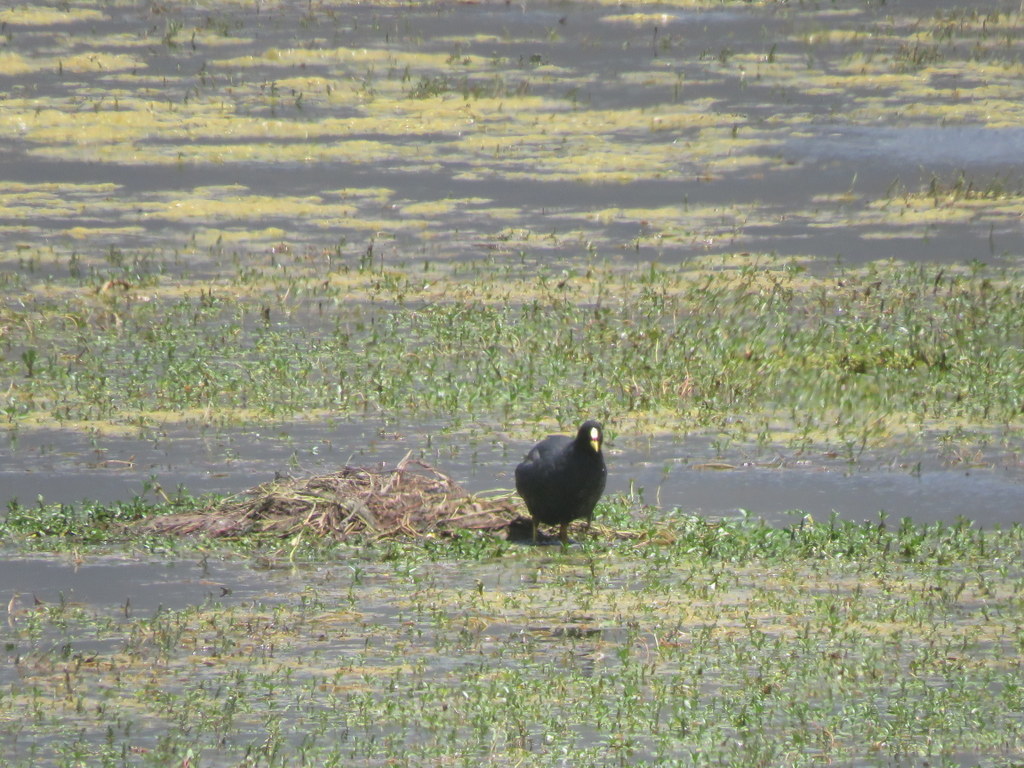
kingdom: Animalia
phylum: Chordata
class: Aves
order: Gruiformes
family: Rallidae
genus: Fulica
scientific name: Fulica armillata
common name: Red-gartered coot
